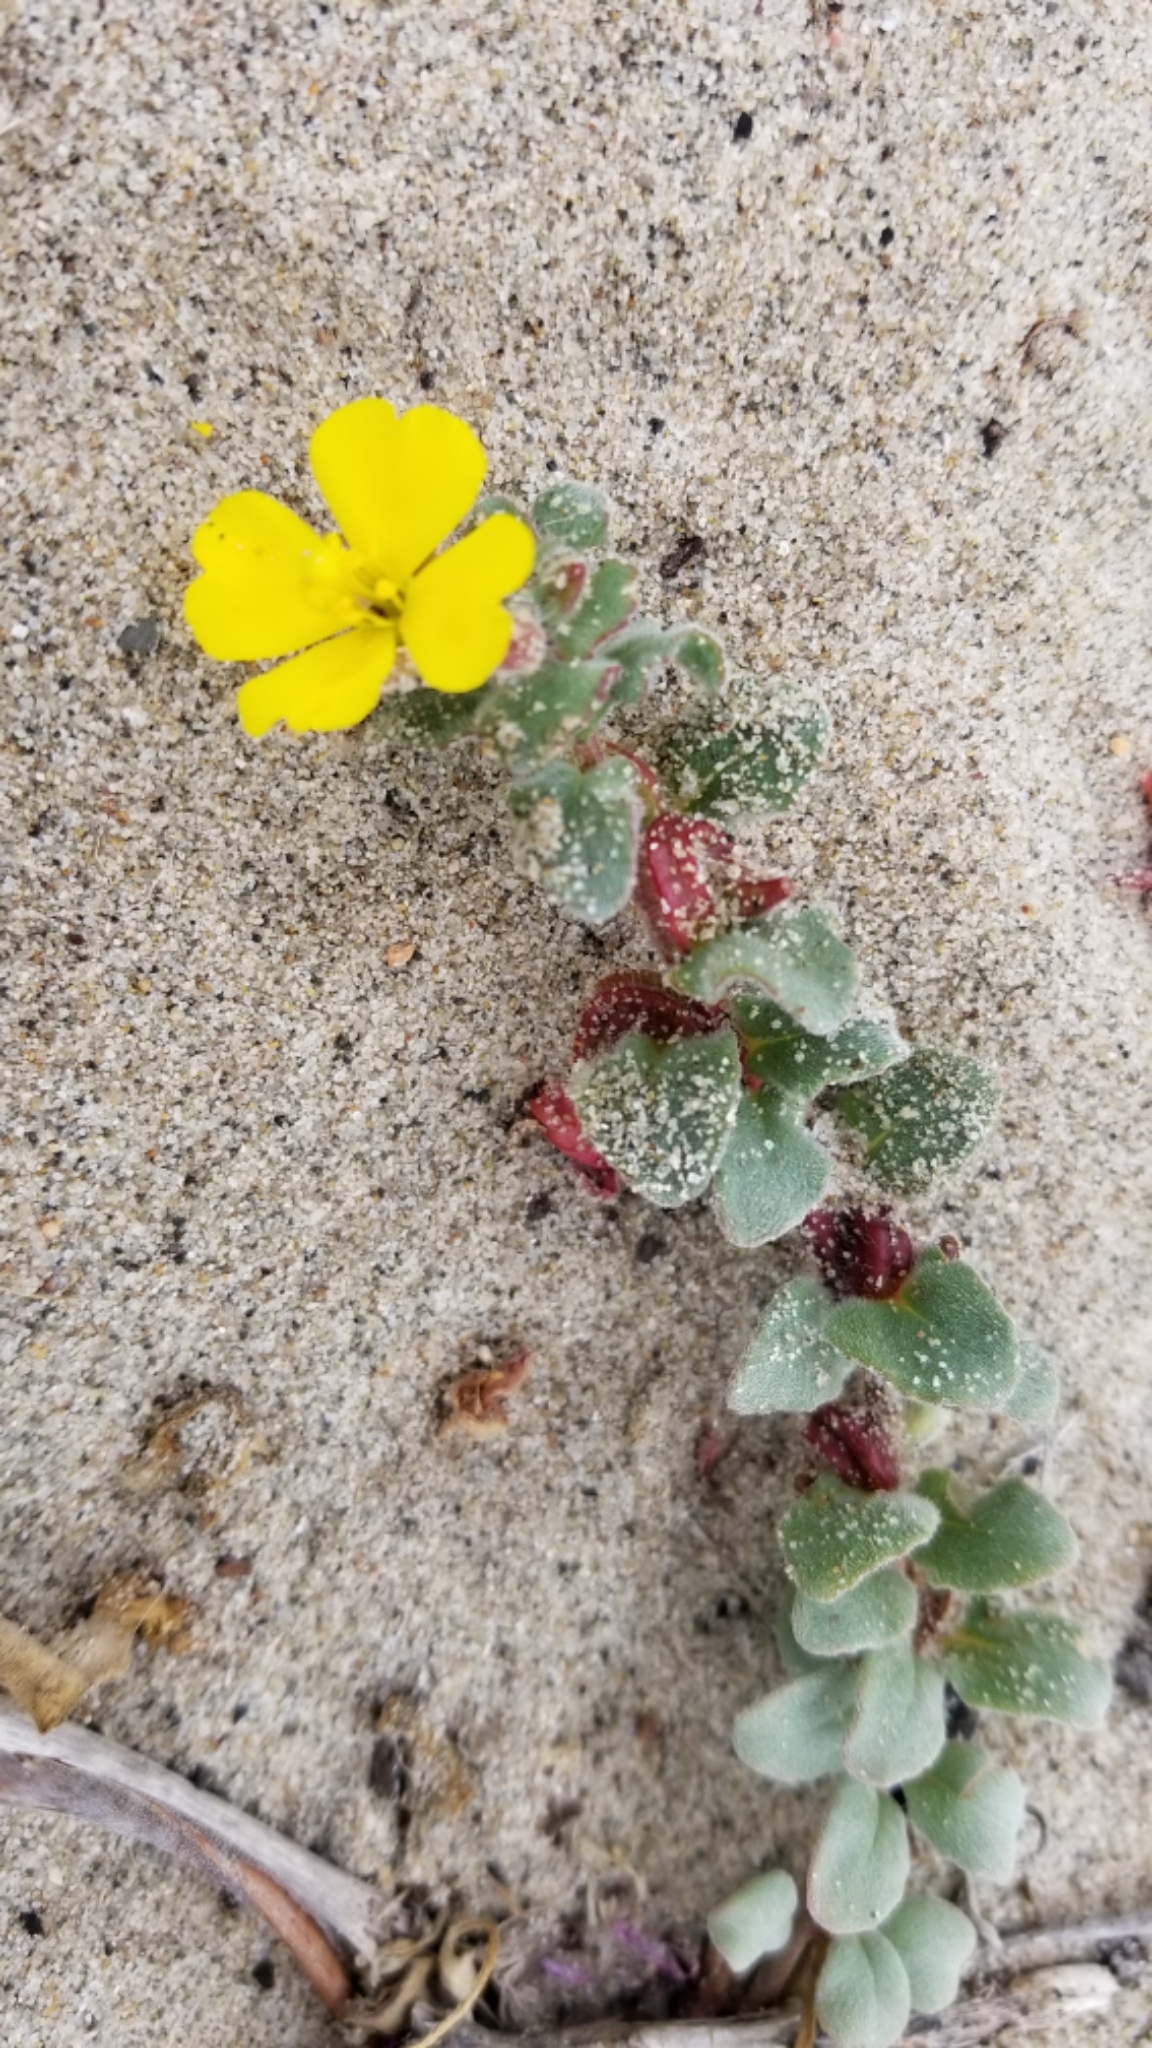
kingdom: Plantae
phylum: Tracheophyta
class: Magnoliopsida
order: Myrtales
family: Onagraceae
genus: Camissoniopsis
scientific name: Camissoniopsis cheiranthifolia
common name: Beach suncup
